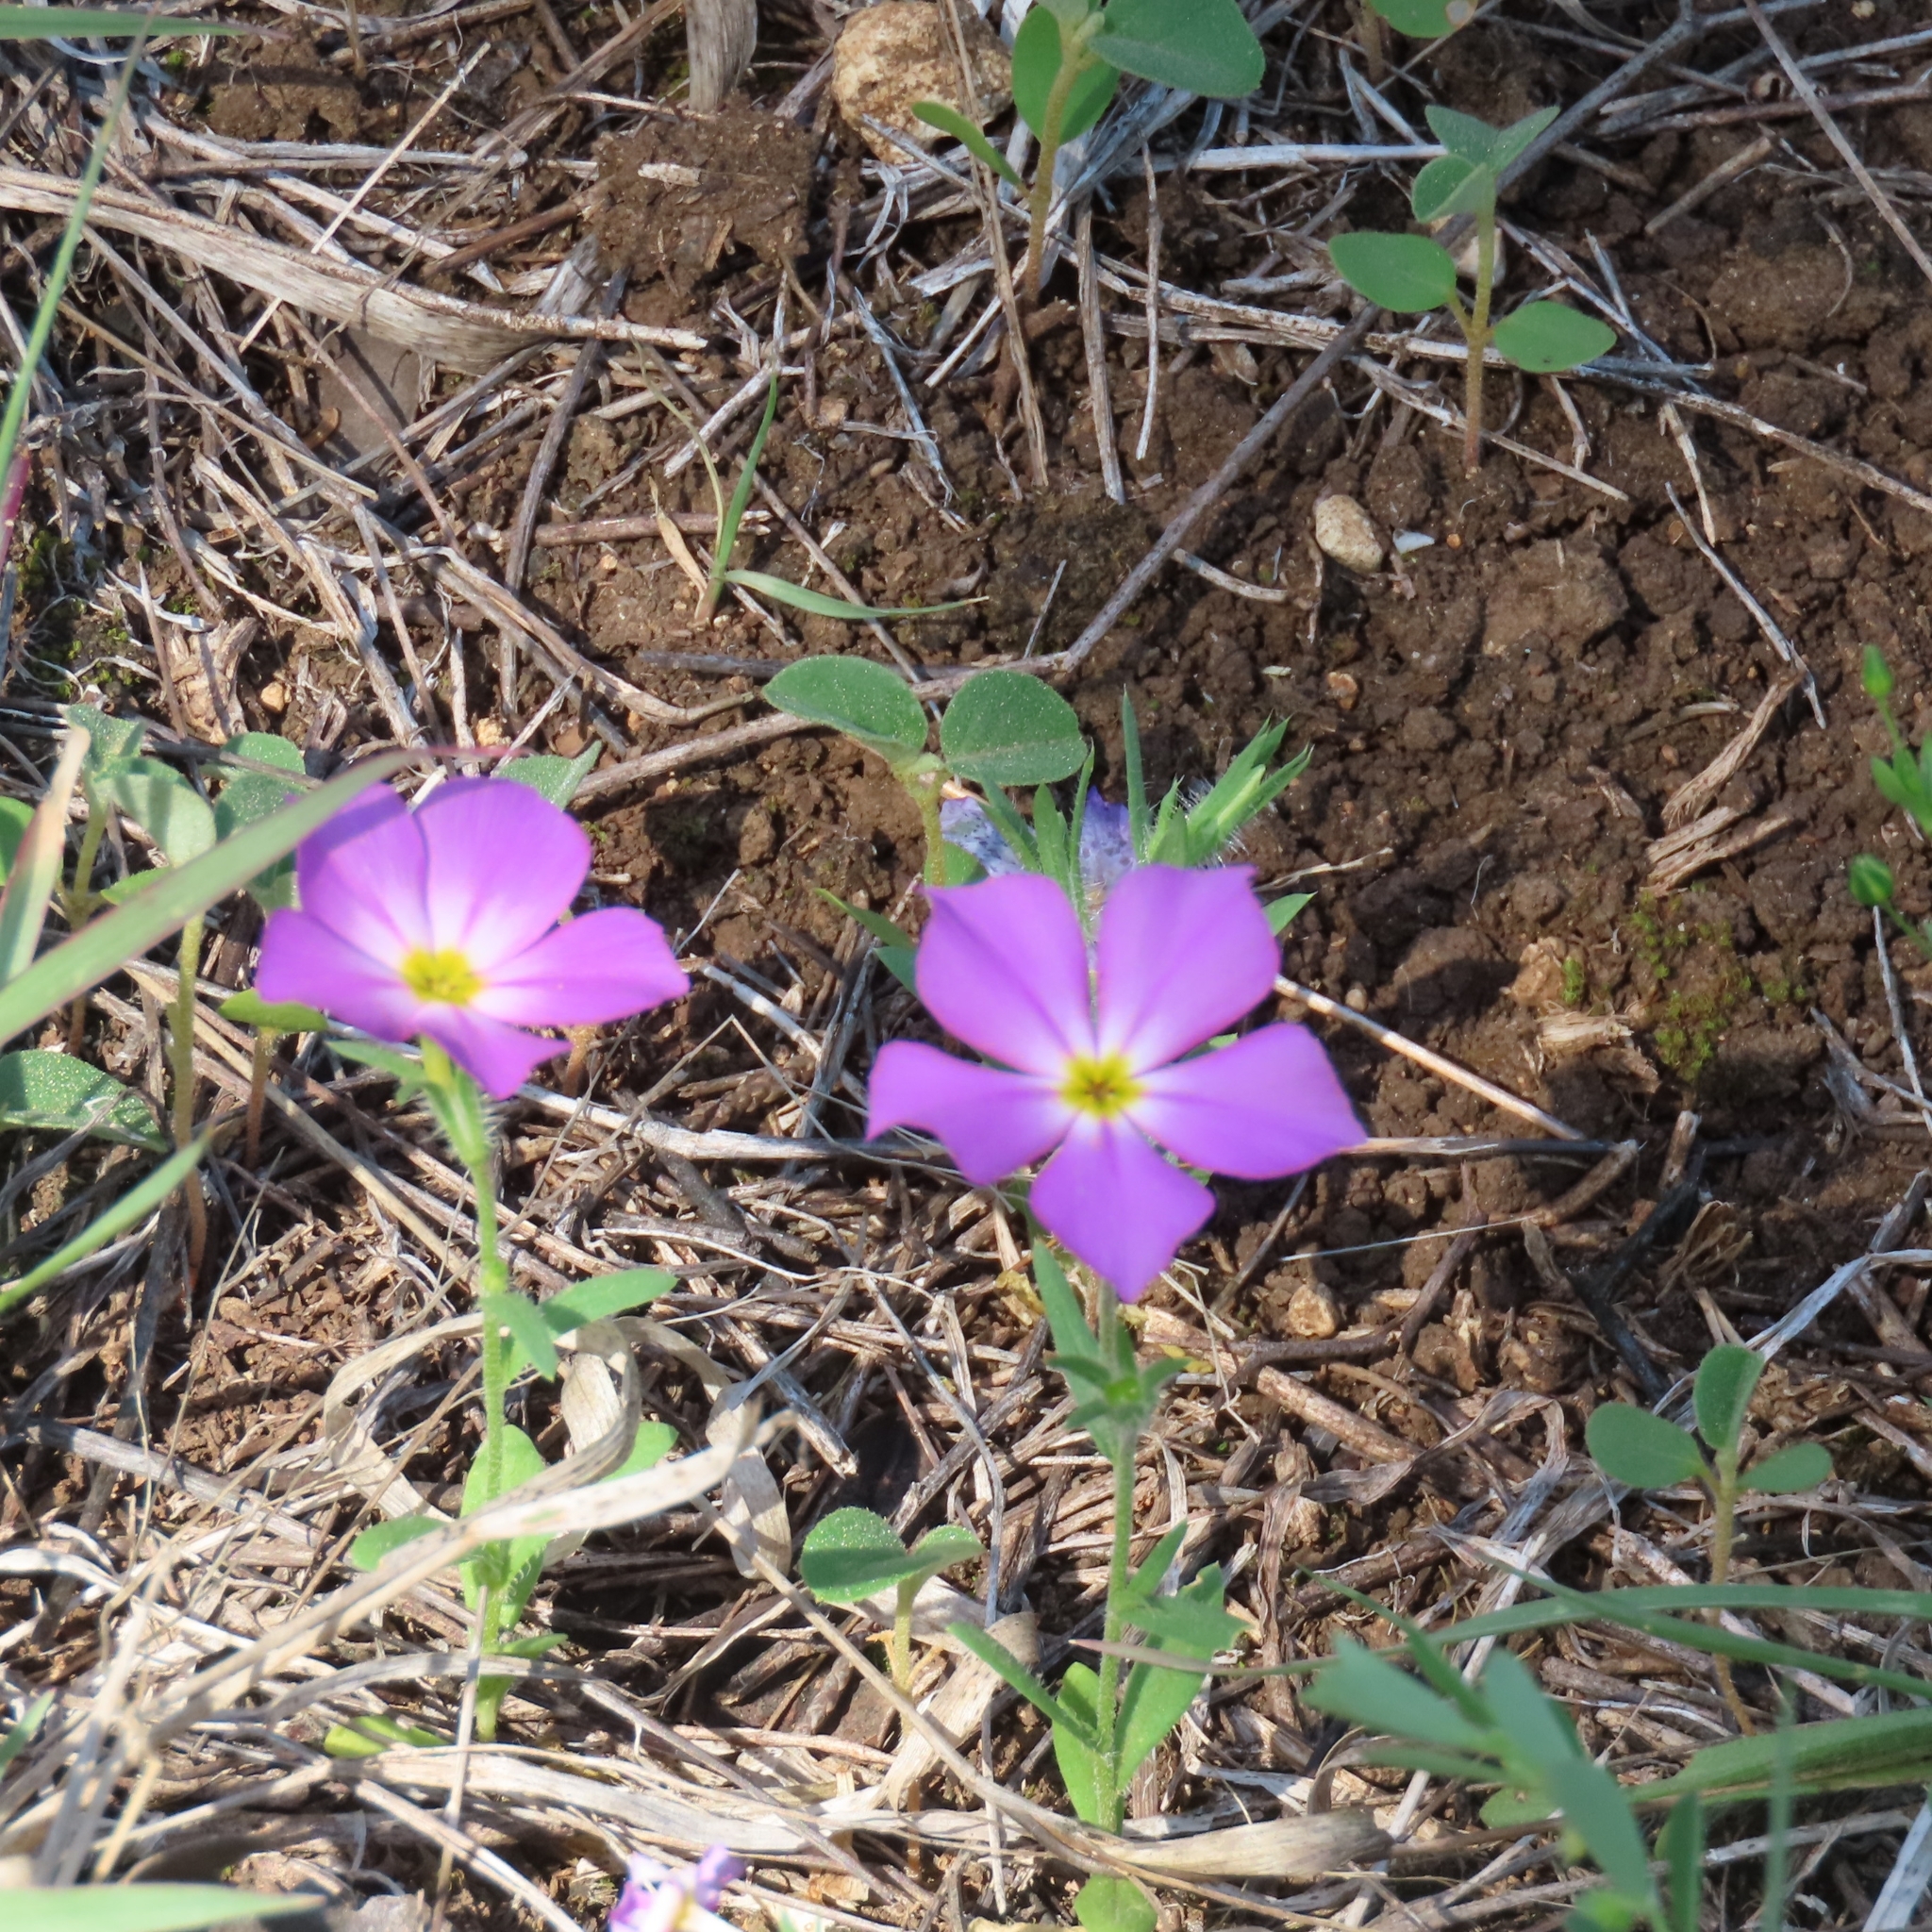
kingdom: Plantae
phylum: Tracheophyta
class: Magnoliopsida
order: Ericales
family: Polemoniaceae
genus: Phlox
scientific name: Phlox roemeriana
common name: Roemer's phlox
